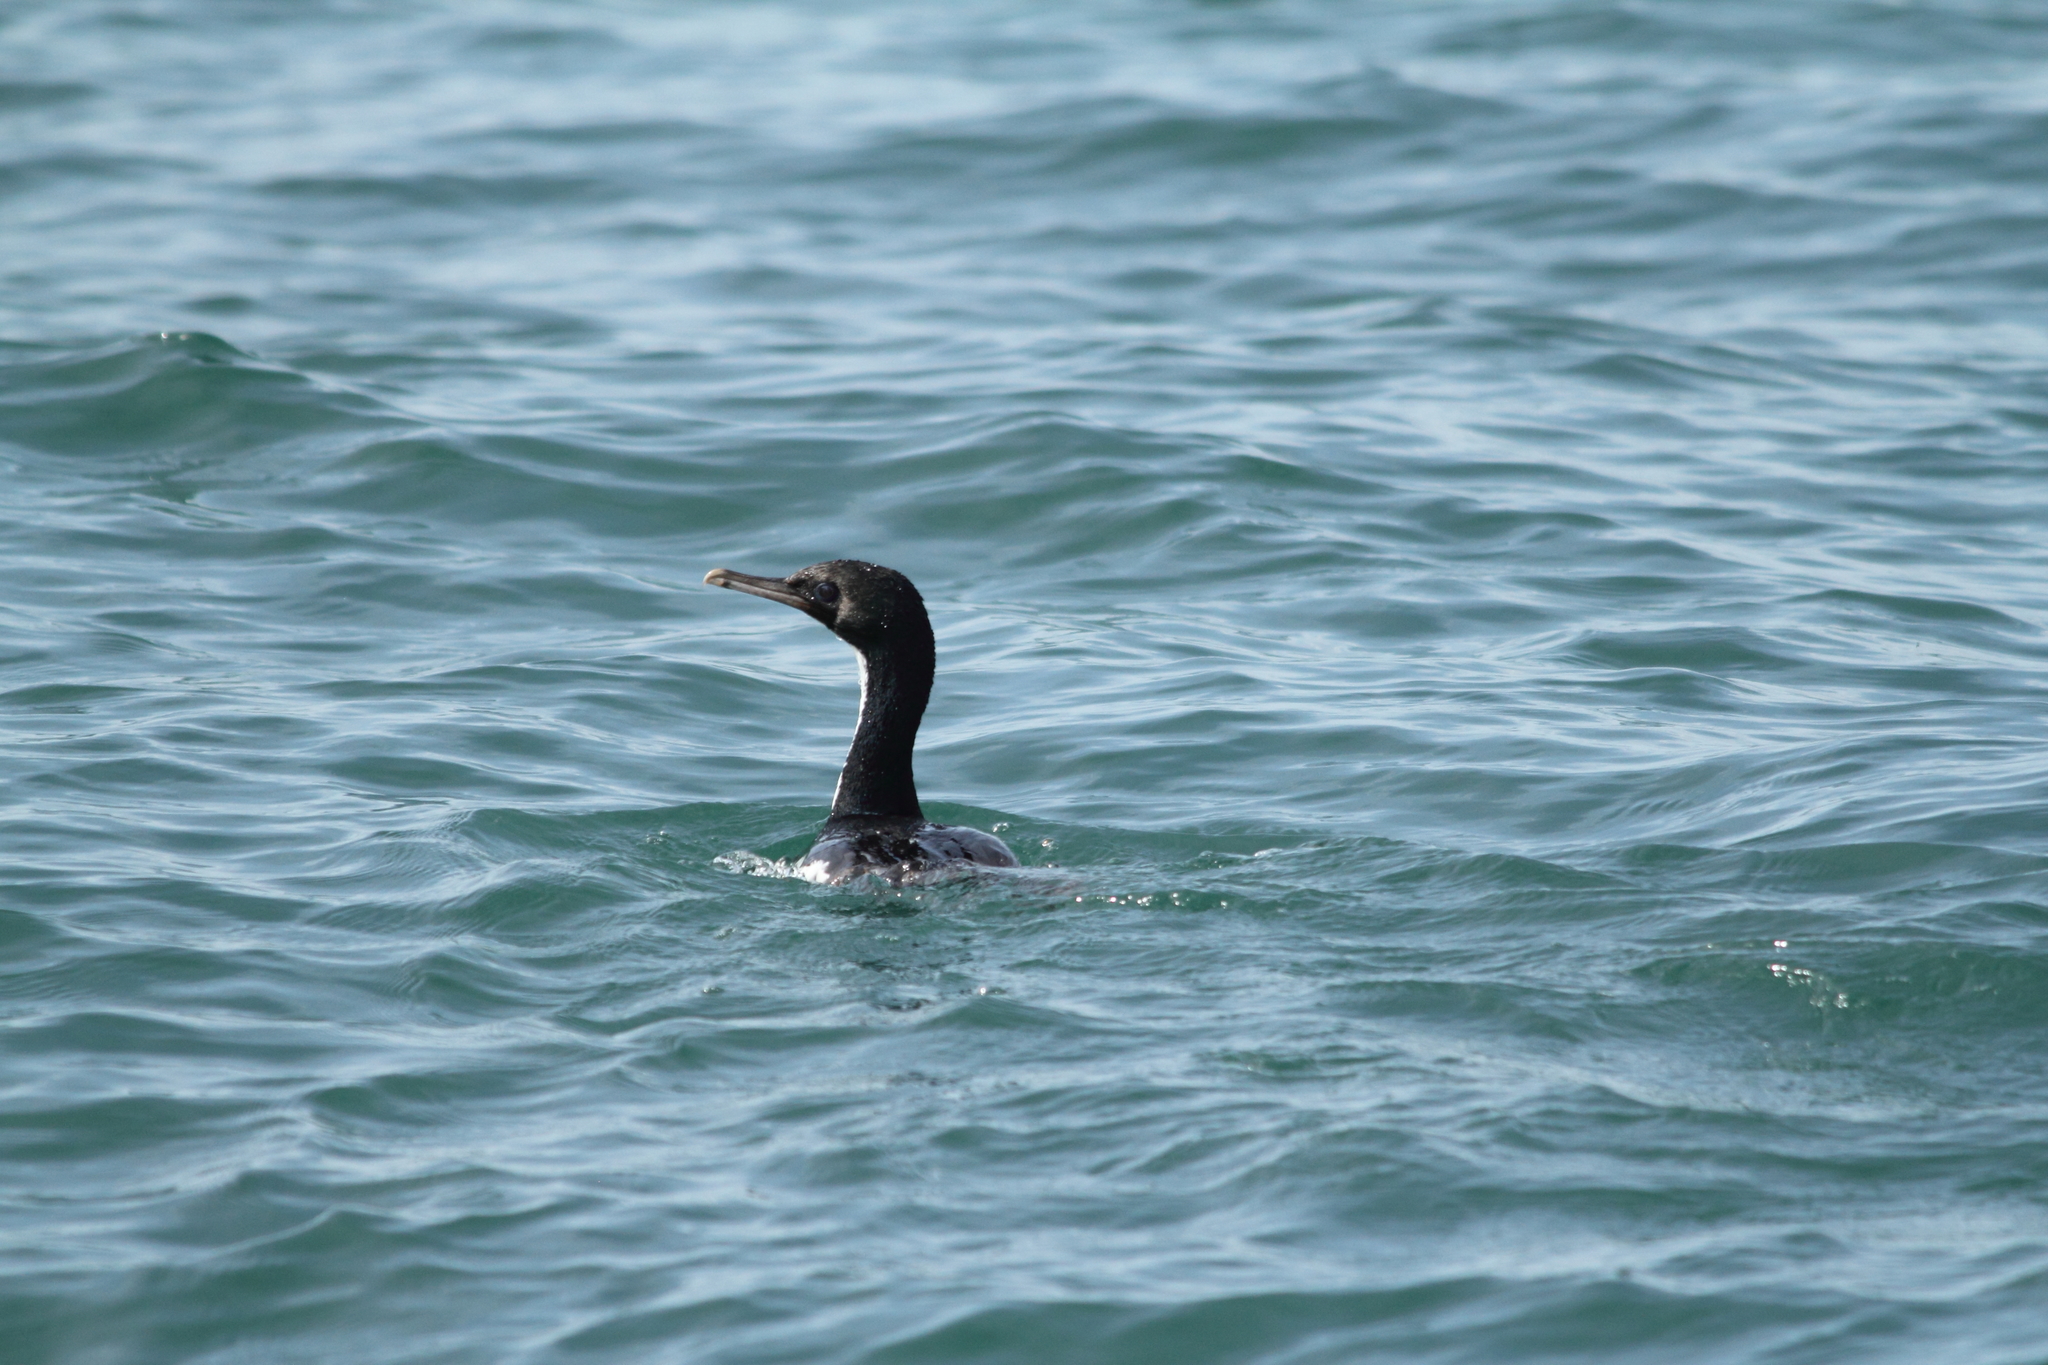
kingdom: Animalia
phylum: Chordata
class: Aves
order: Suliformes
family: Phalacrocoracidae
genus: Leucocarbo
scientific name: Leucocarbo chalconotus
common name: Stewart shag
